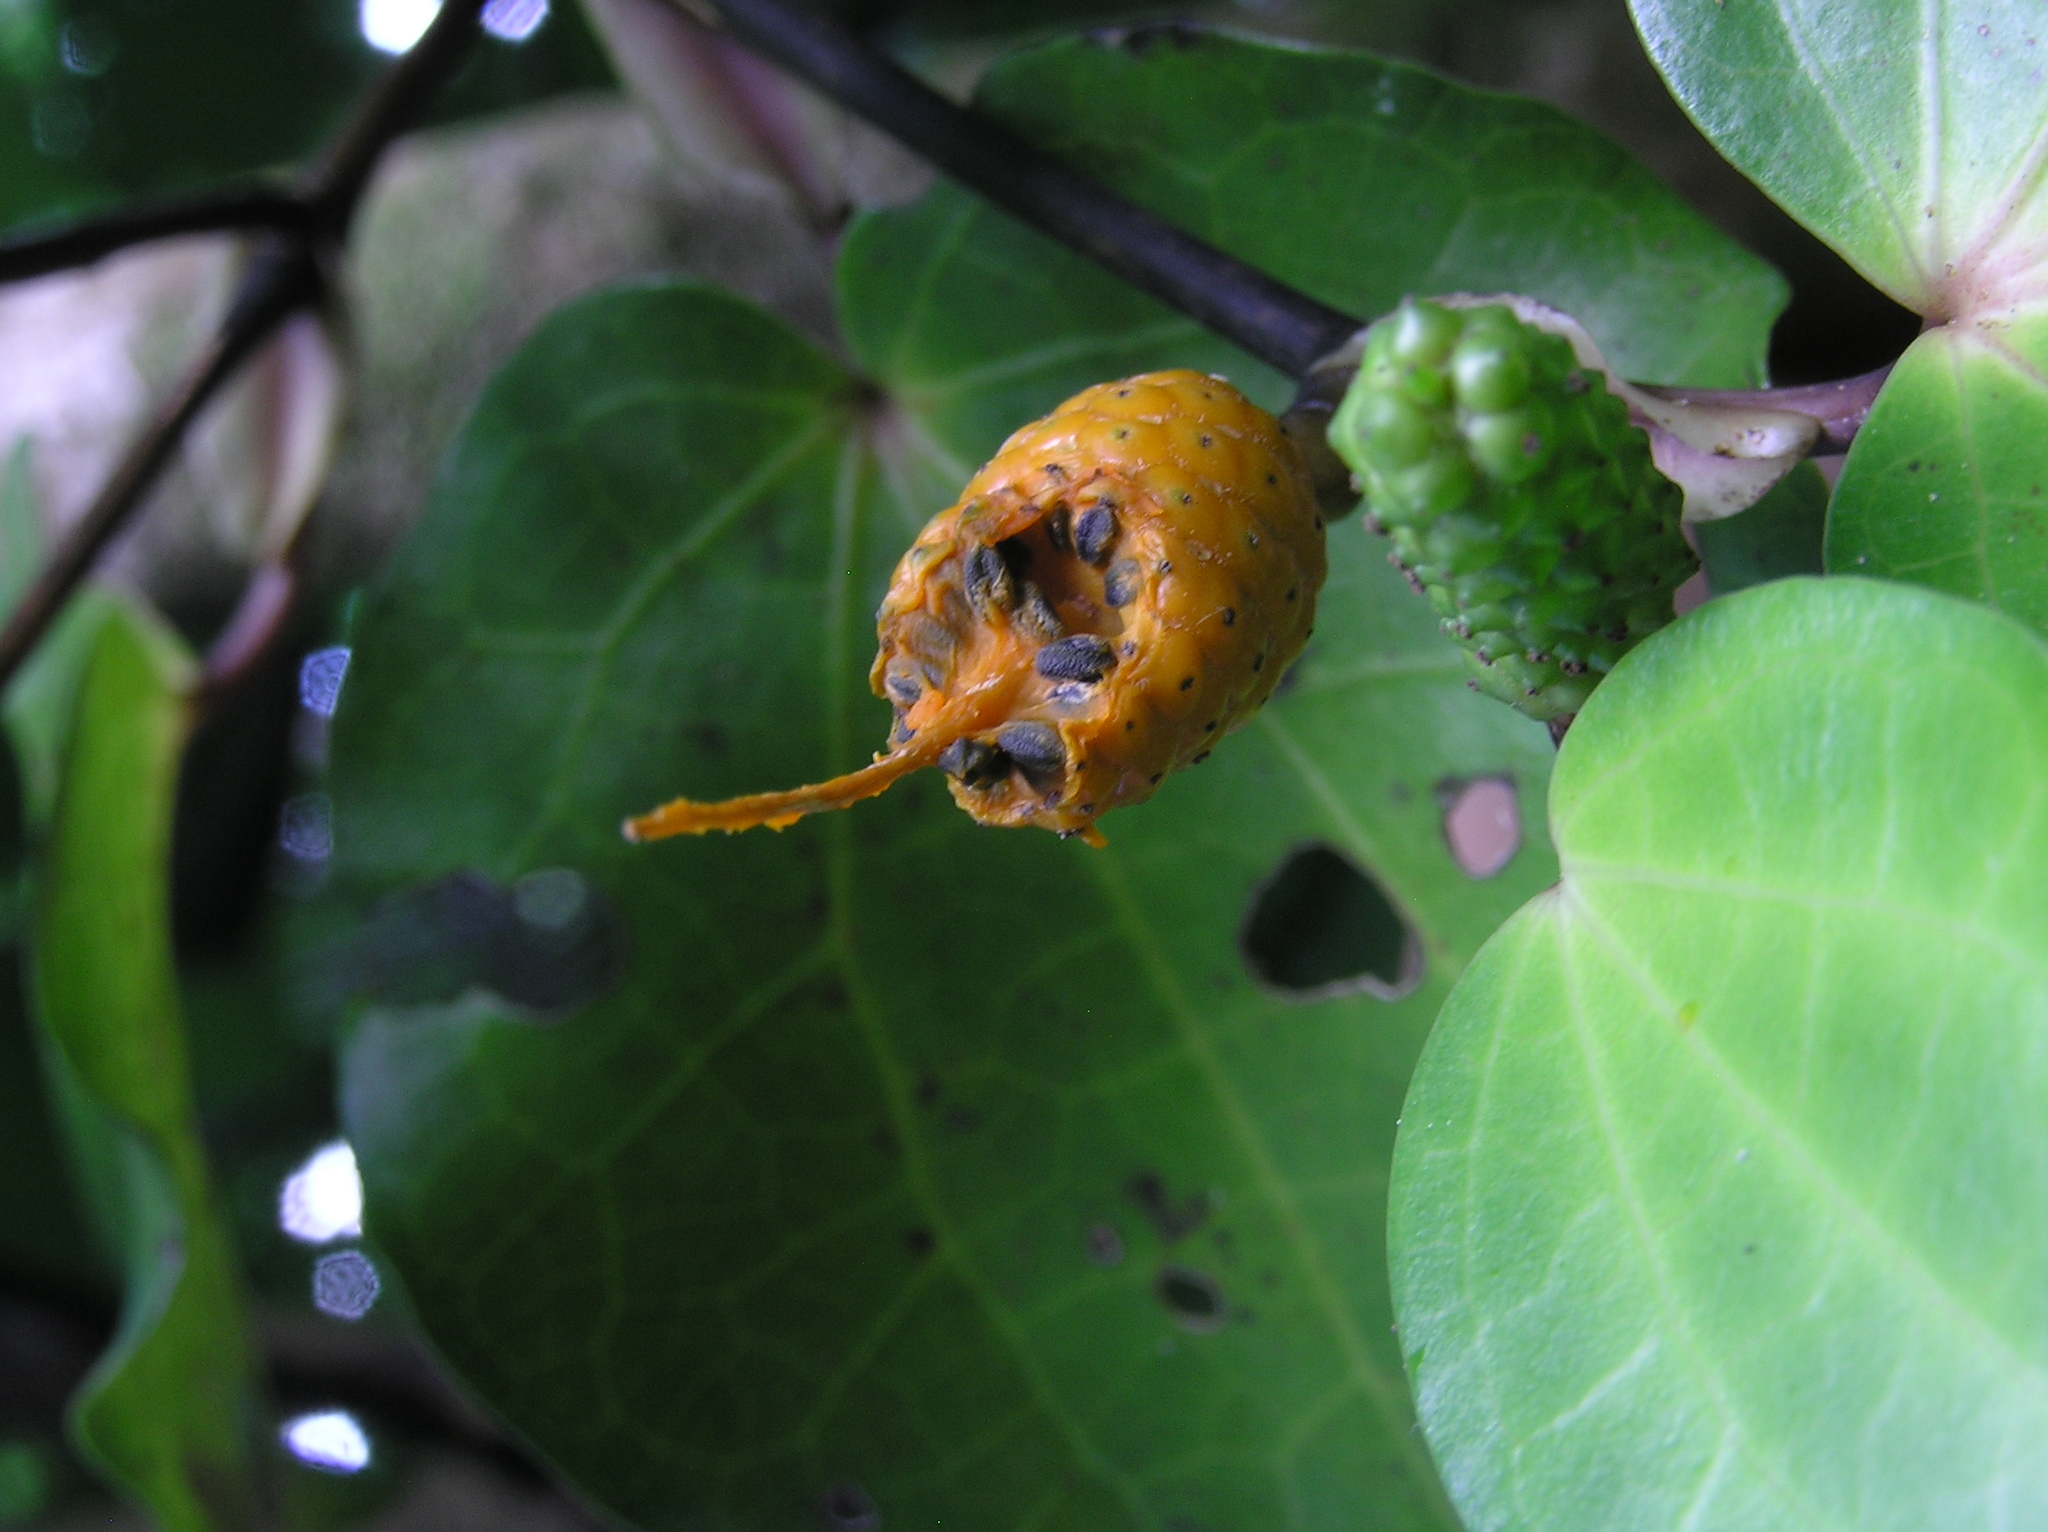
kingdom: Plantae
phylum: Tracheophyta
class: Magnoliopsida
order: Piperales
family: Piperaceae
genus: Macropiper
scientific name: Macropiper excelsum
